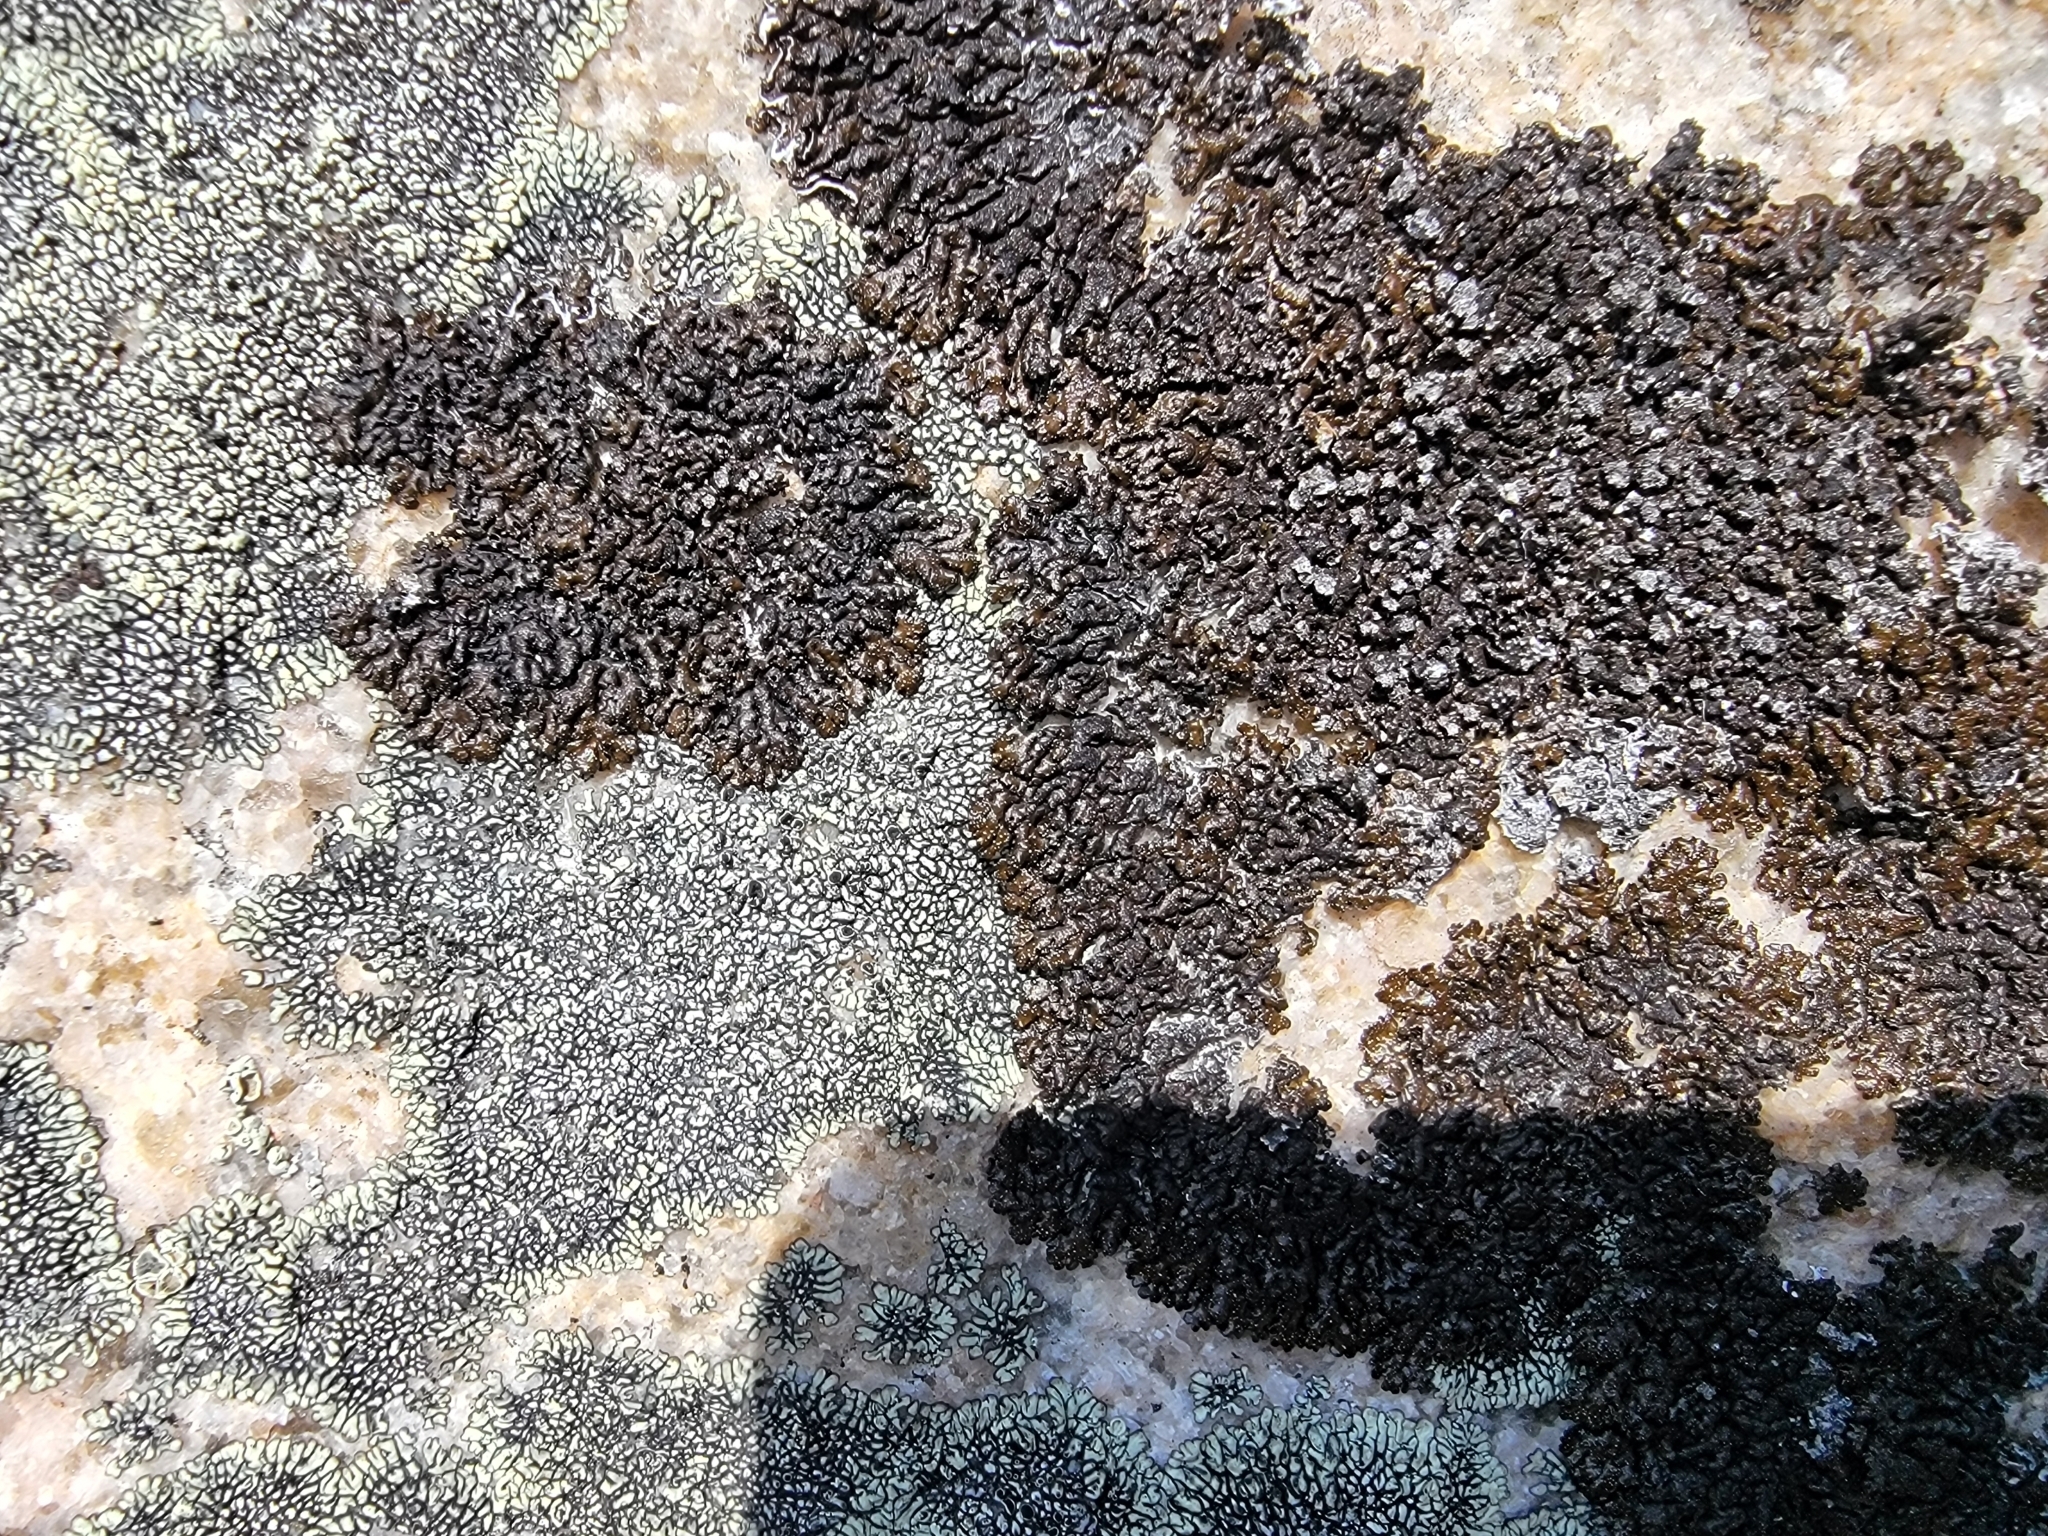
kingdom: Fungi
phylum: Ascomycota
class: Lecanoromycetes
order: Lecanorales
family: Parmeliaceae
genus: Montanelia
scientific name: Montanelia saximontana
